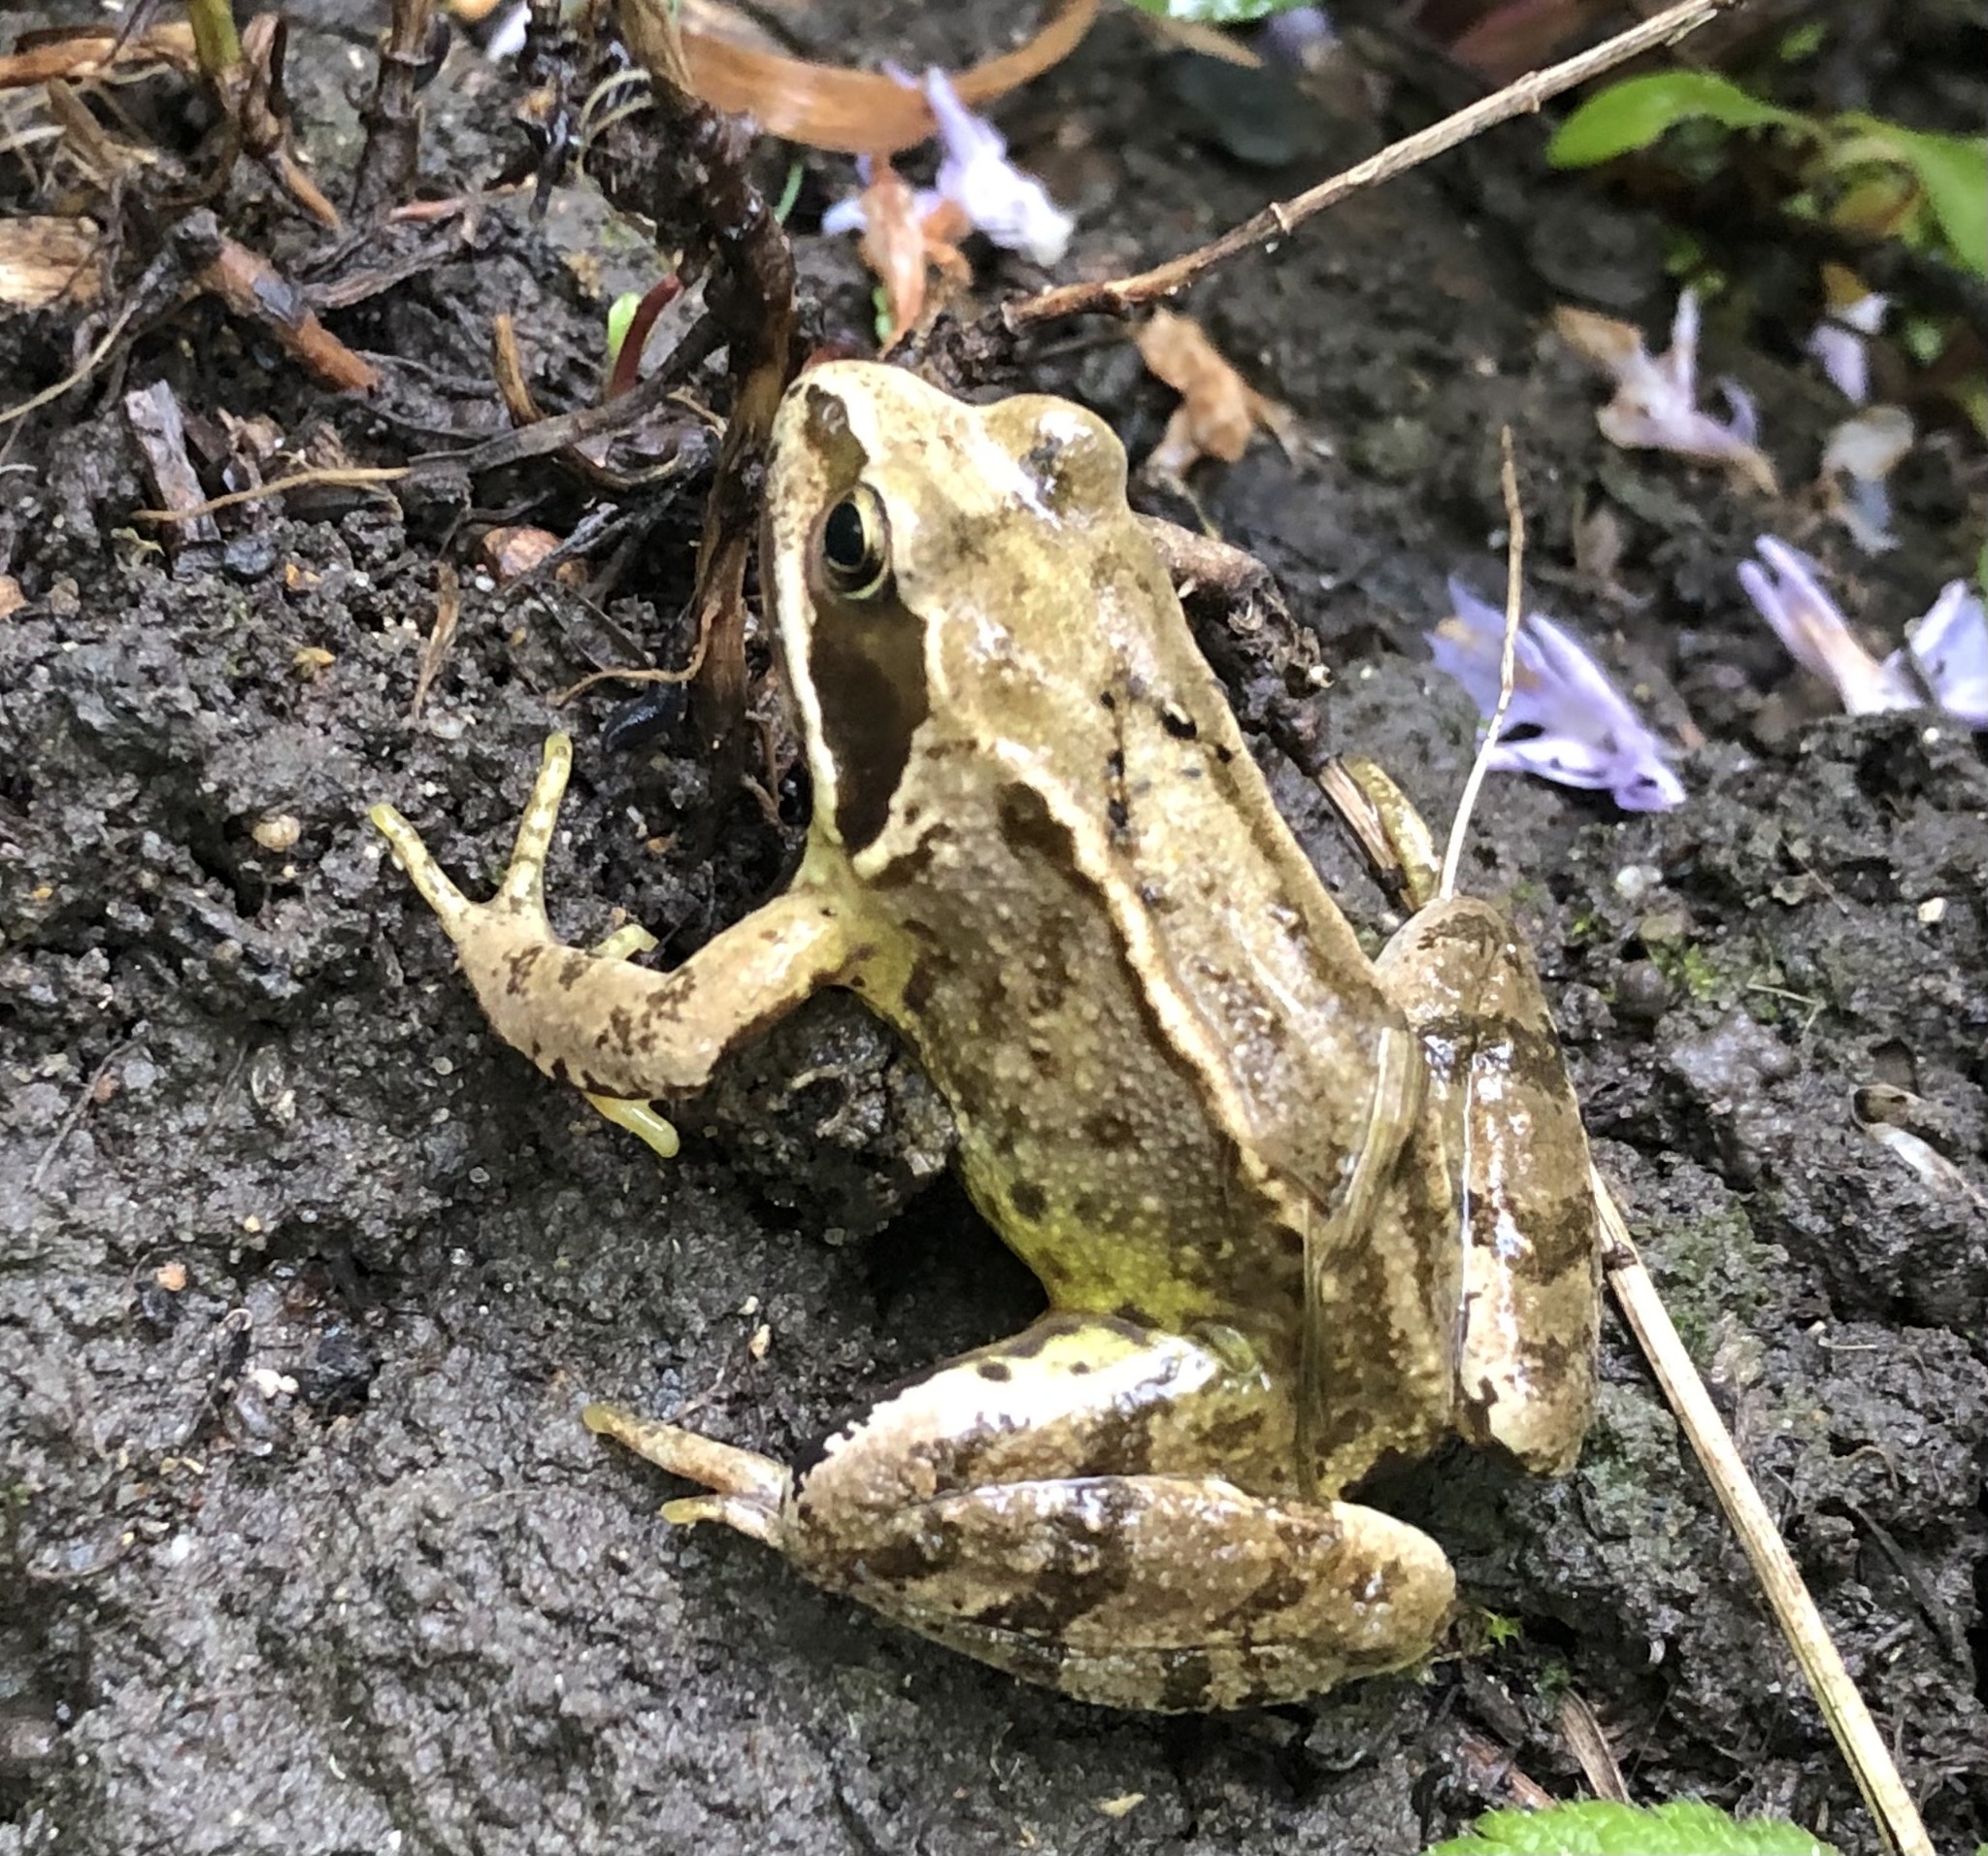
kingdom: Animalia
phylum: Chordata
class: Amphibia
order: Anura
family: Ranidae
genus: Rana
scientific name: Rana temporaria
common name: Common frog
